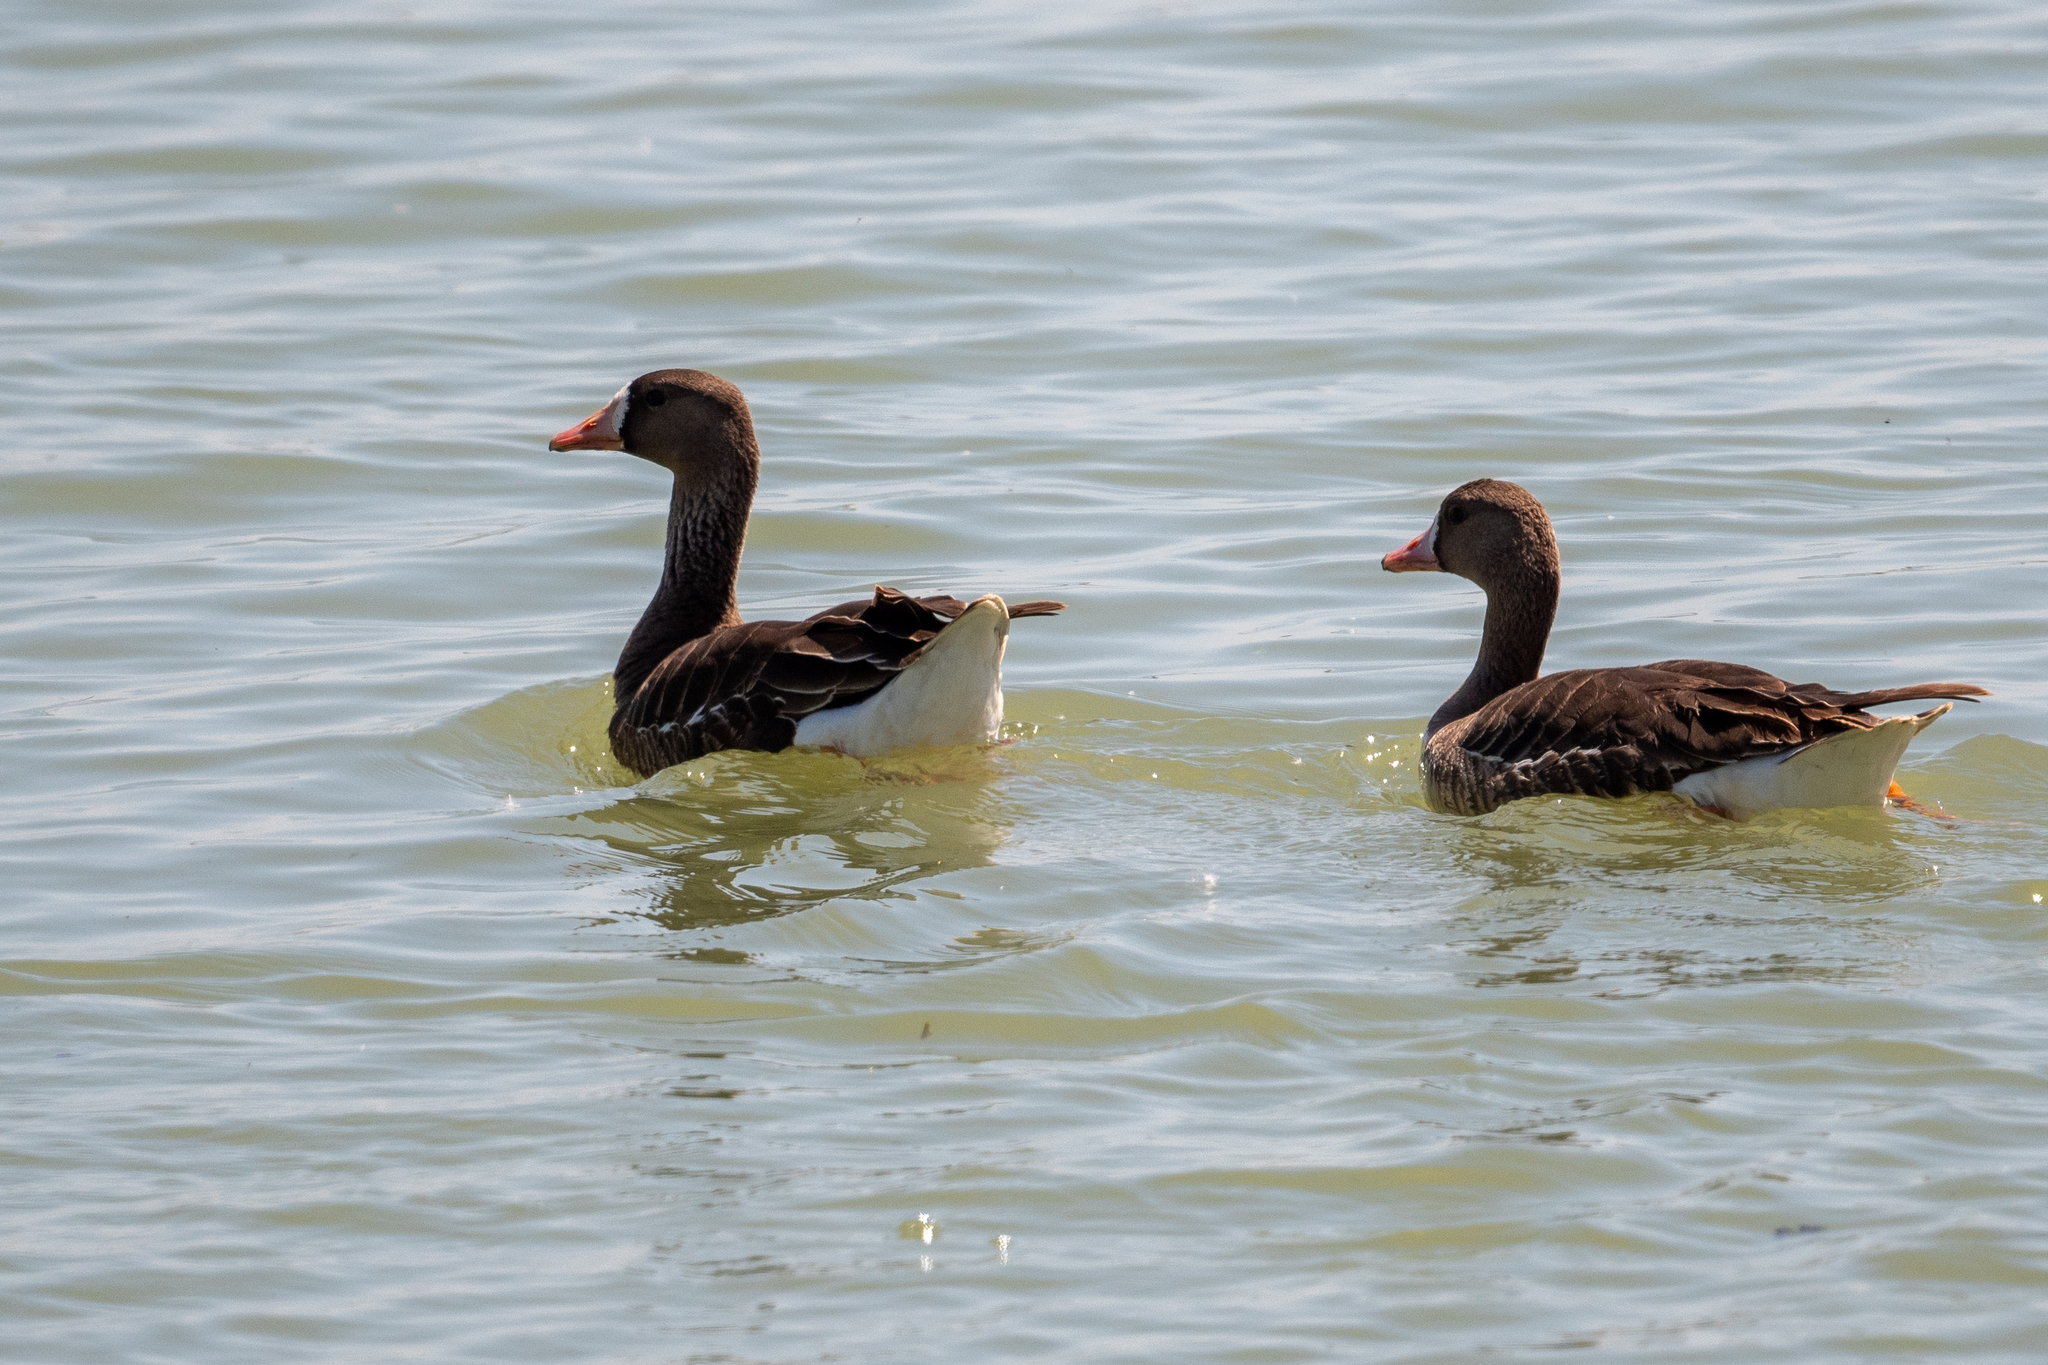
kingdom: Animalia
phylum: Chordata
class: Aves
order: Anseriformes
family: Anatidae
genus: Anser
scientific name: Anser albifrons
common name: Greater white-fronted goose
